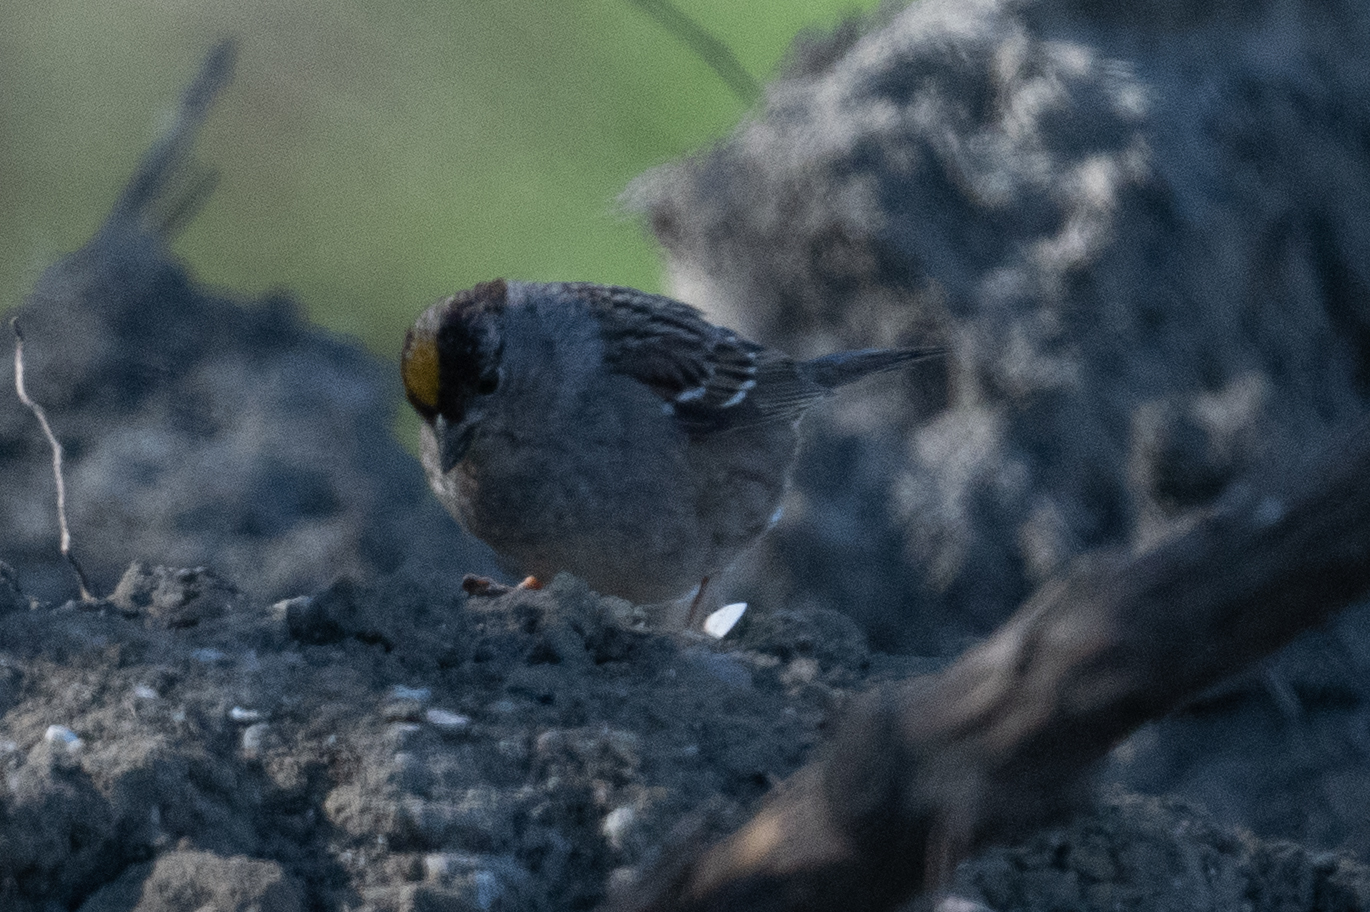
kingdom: Animalia
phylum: Chordata
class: Aves
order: Passeriformes
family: Passerellidae
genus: Zonotrichia
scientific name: Zonotrichia atricapilla
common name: Golden-crowned sparrow
